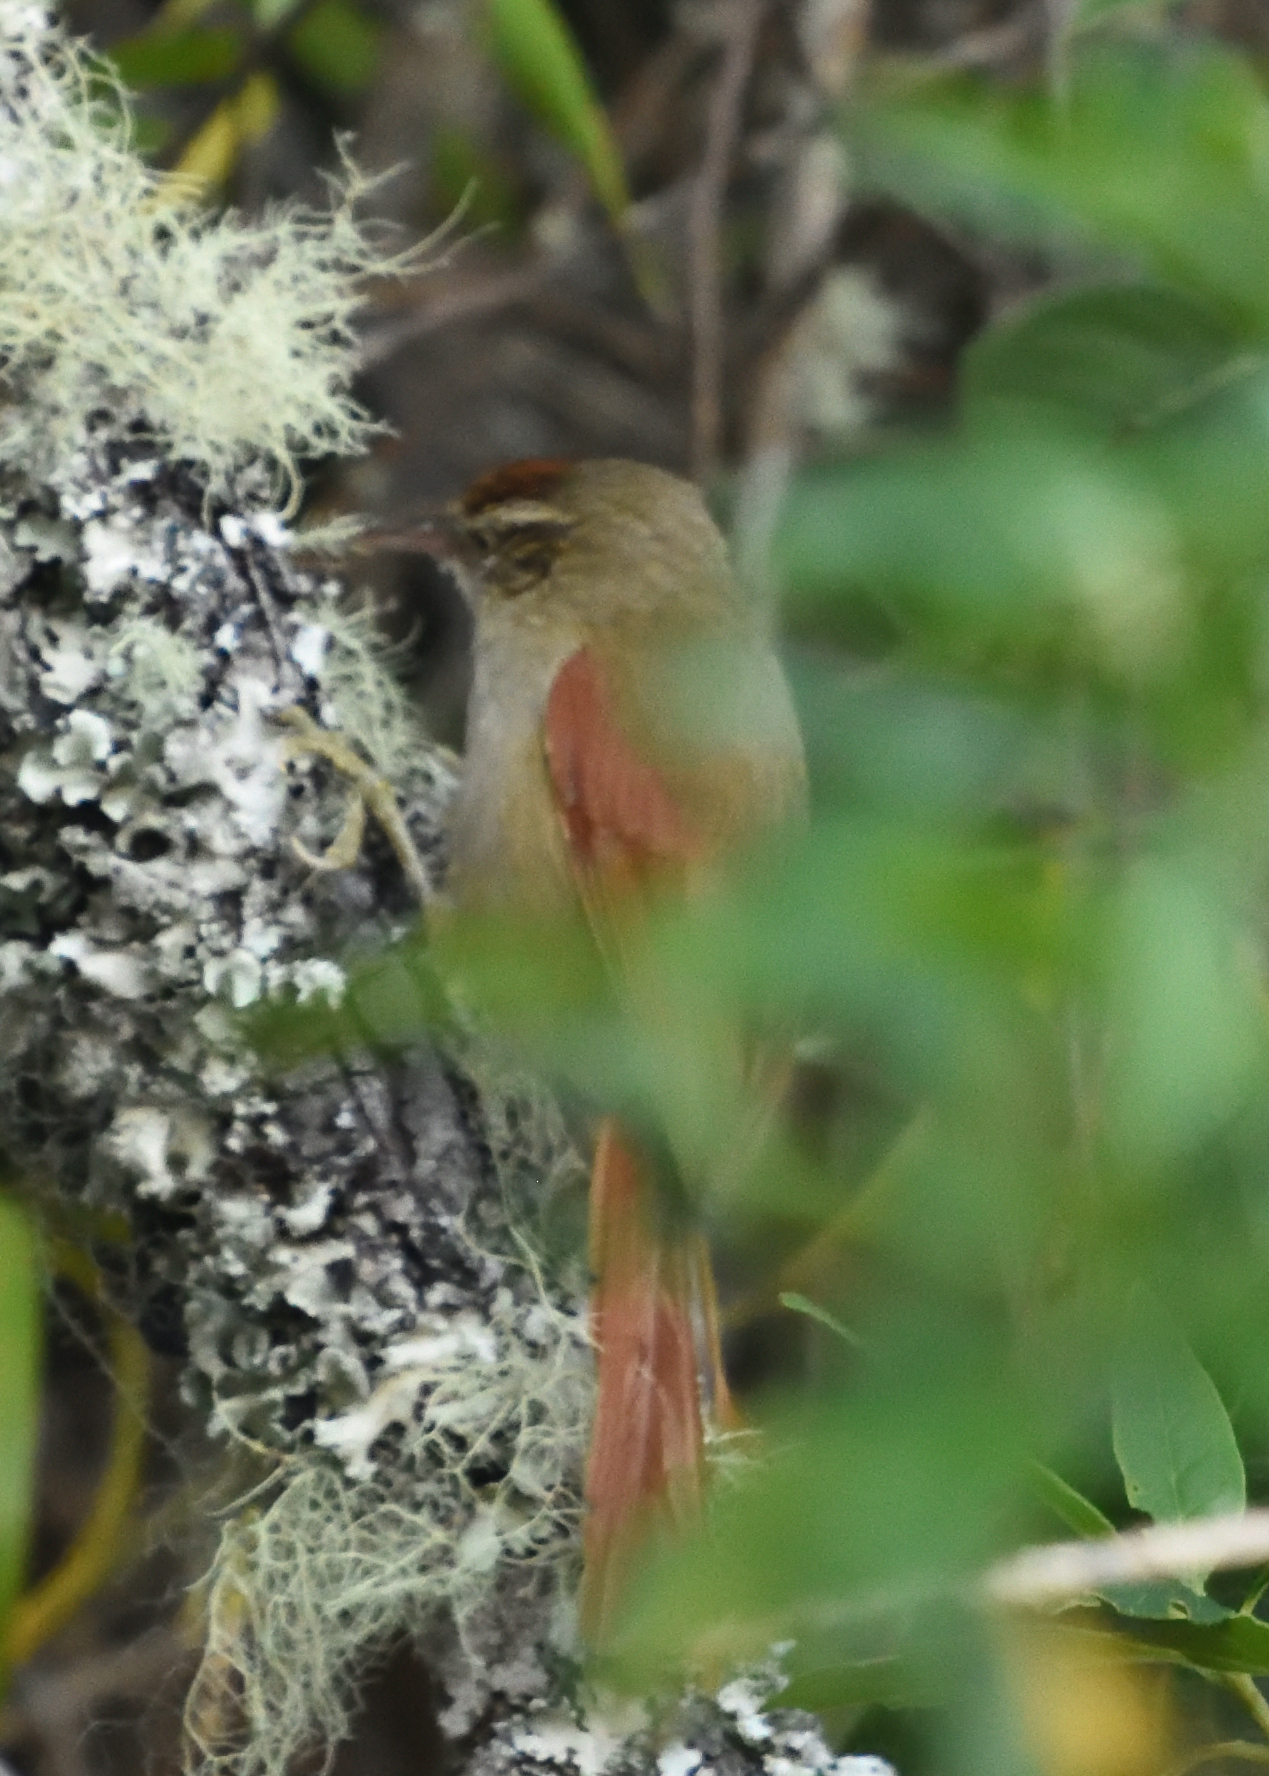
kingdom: Animalia
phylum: Chordata
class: Aves
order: Passeriformes
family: Furnariidae
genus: Cranioleuca
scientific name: Cranioleuca hellmayri
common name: Streak-capped spinetail
